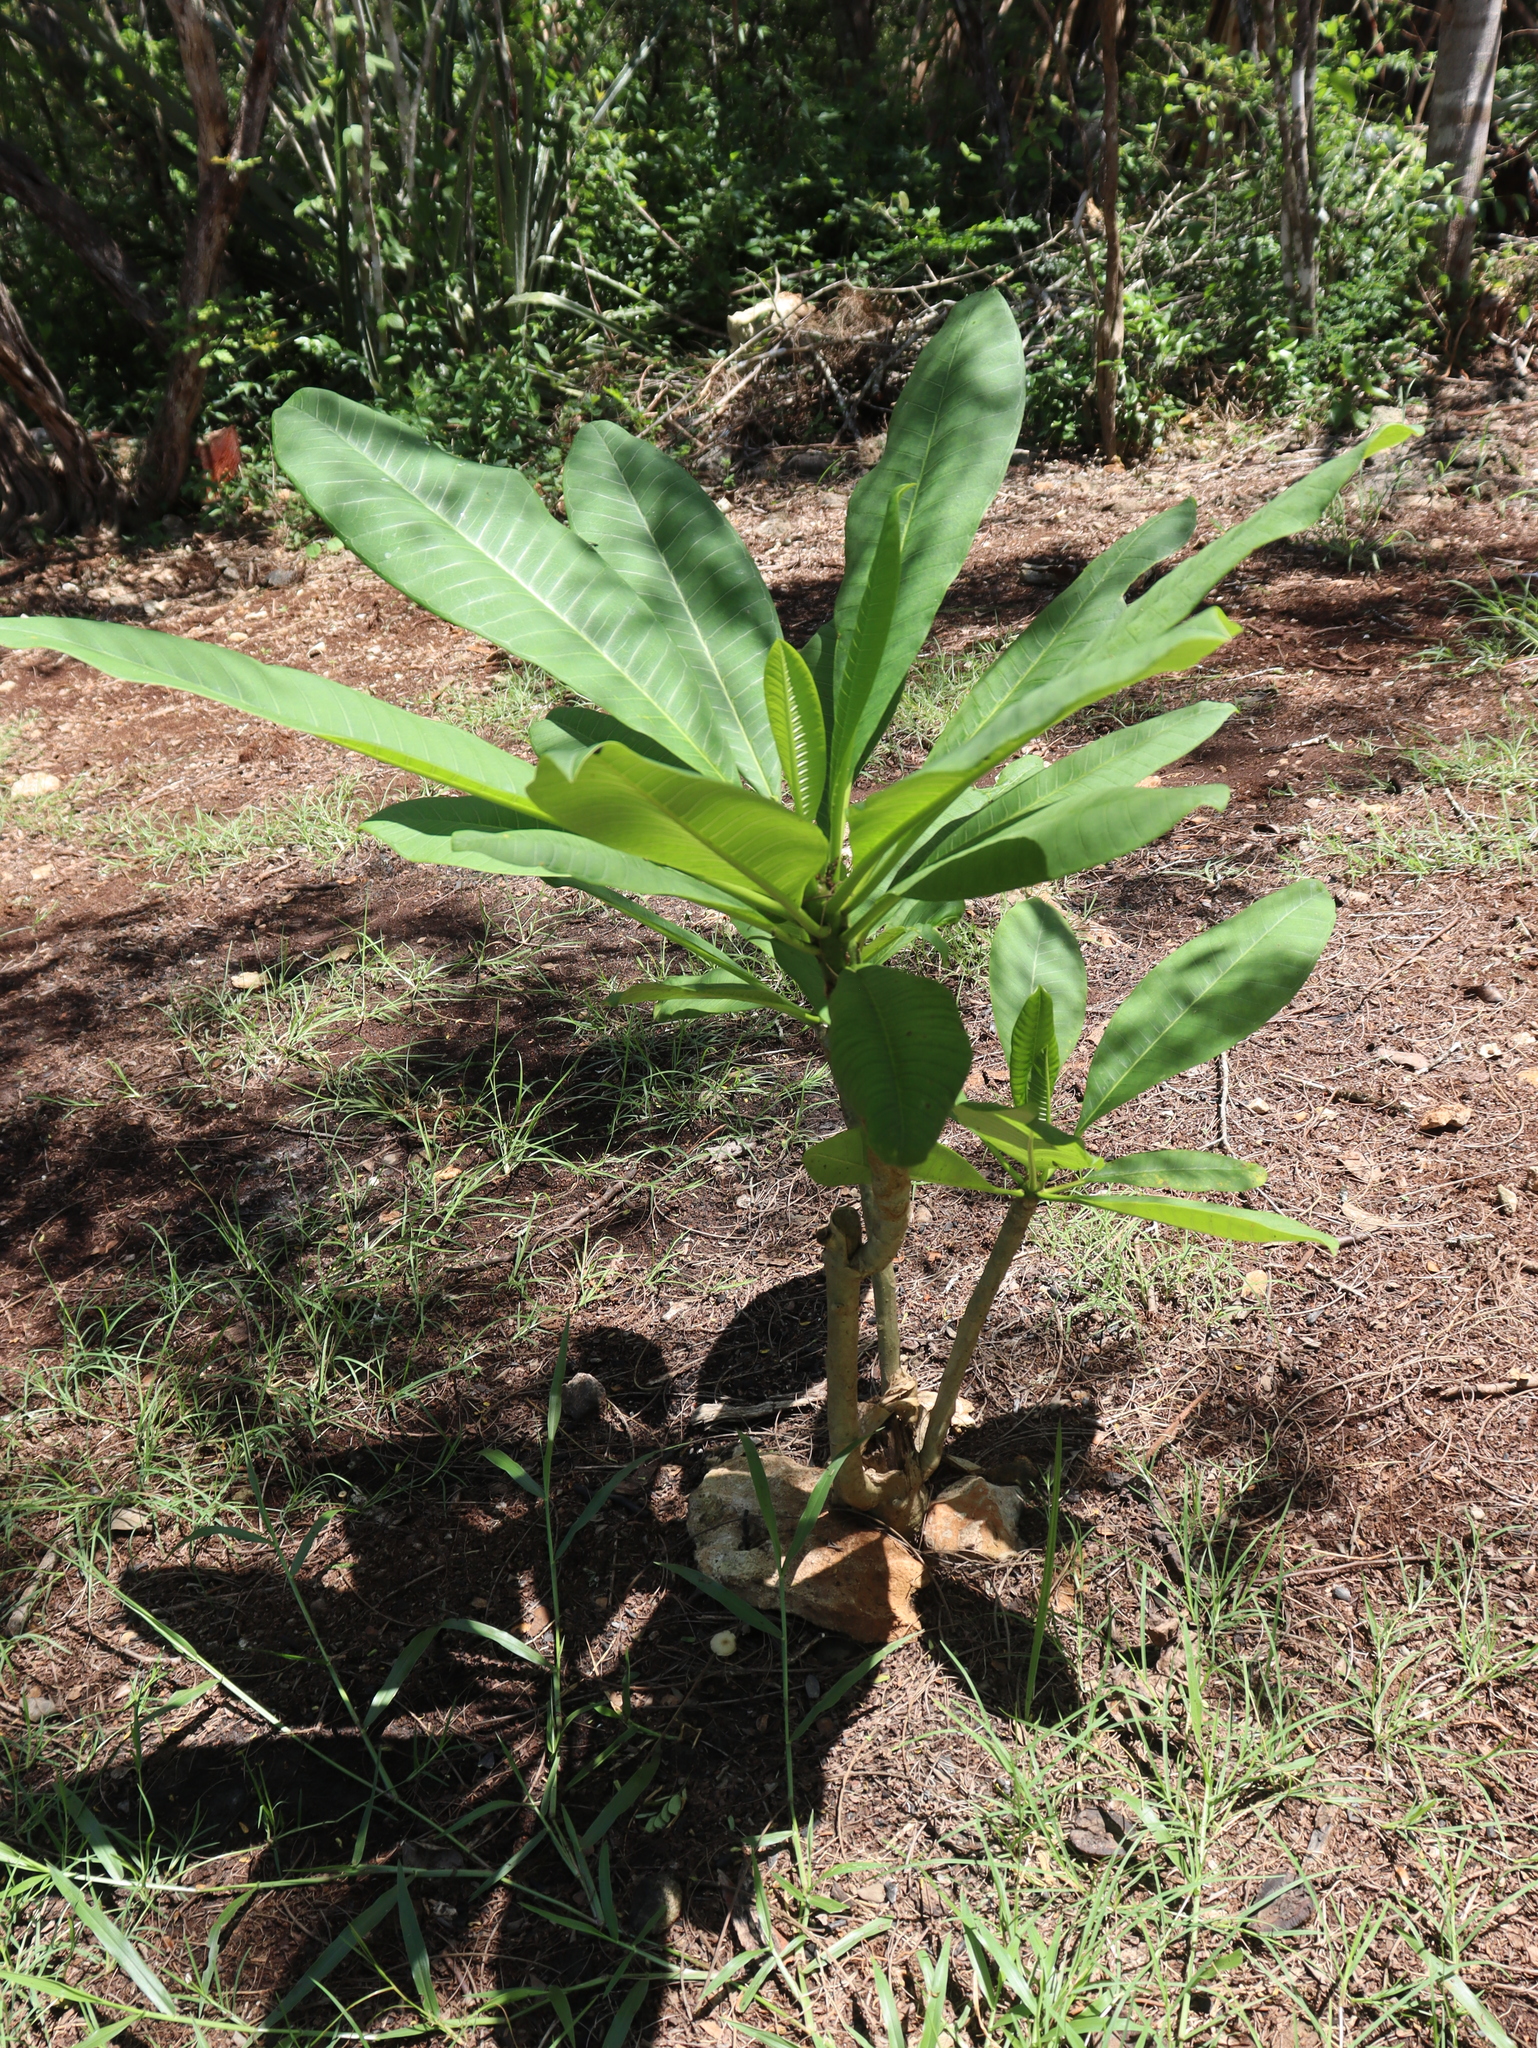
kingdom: Plantae
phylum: Tracheophyta
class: Magnoliopsida
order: Gentianales
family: Apocynaceae
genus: Plumeria
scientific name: Plumeria rubra
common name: Pagoda-tree
